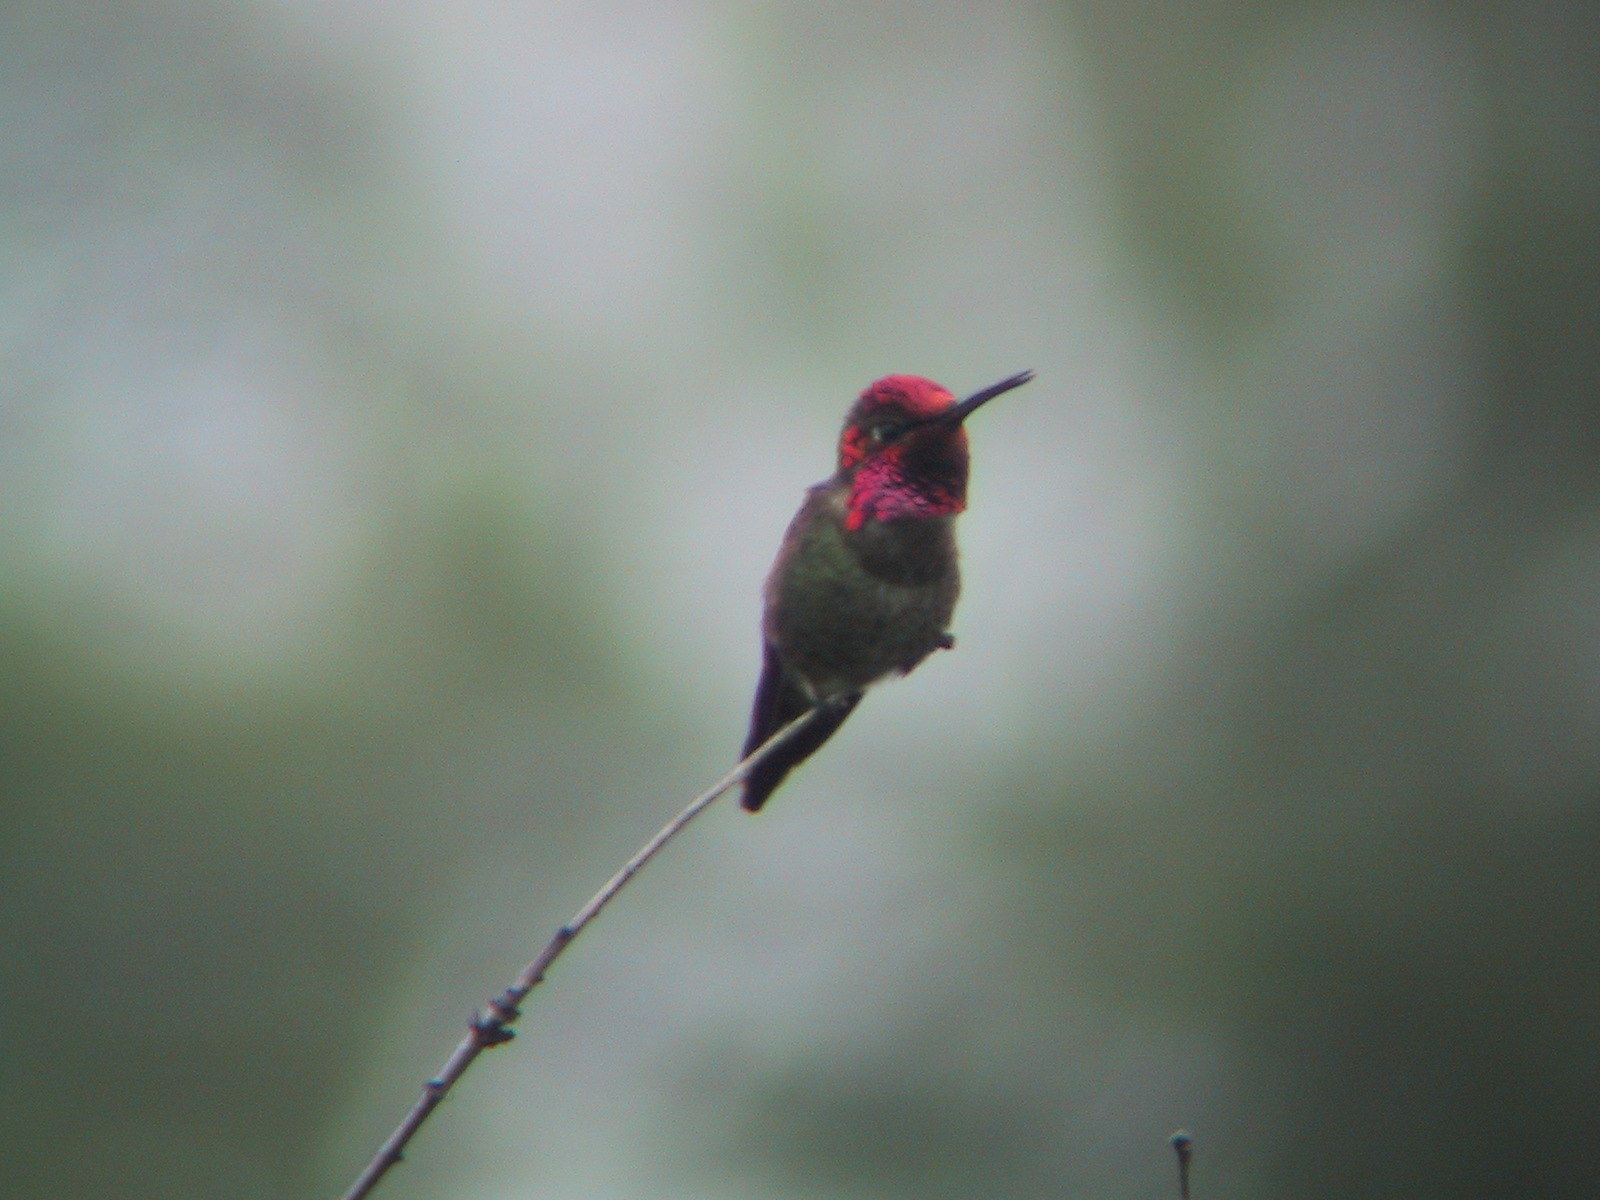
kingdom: Animalia
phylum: Chordata
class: Aves
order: Apodiformes
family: Trochilidae
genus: Calypte
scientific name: Calypte anna
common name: Anna's hummingbird
